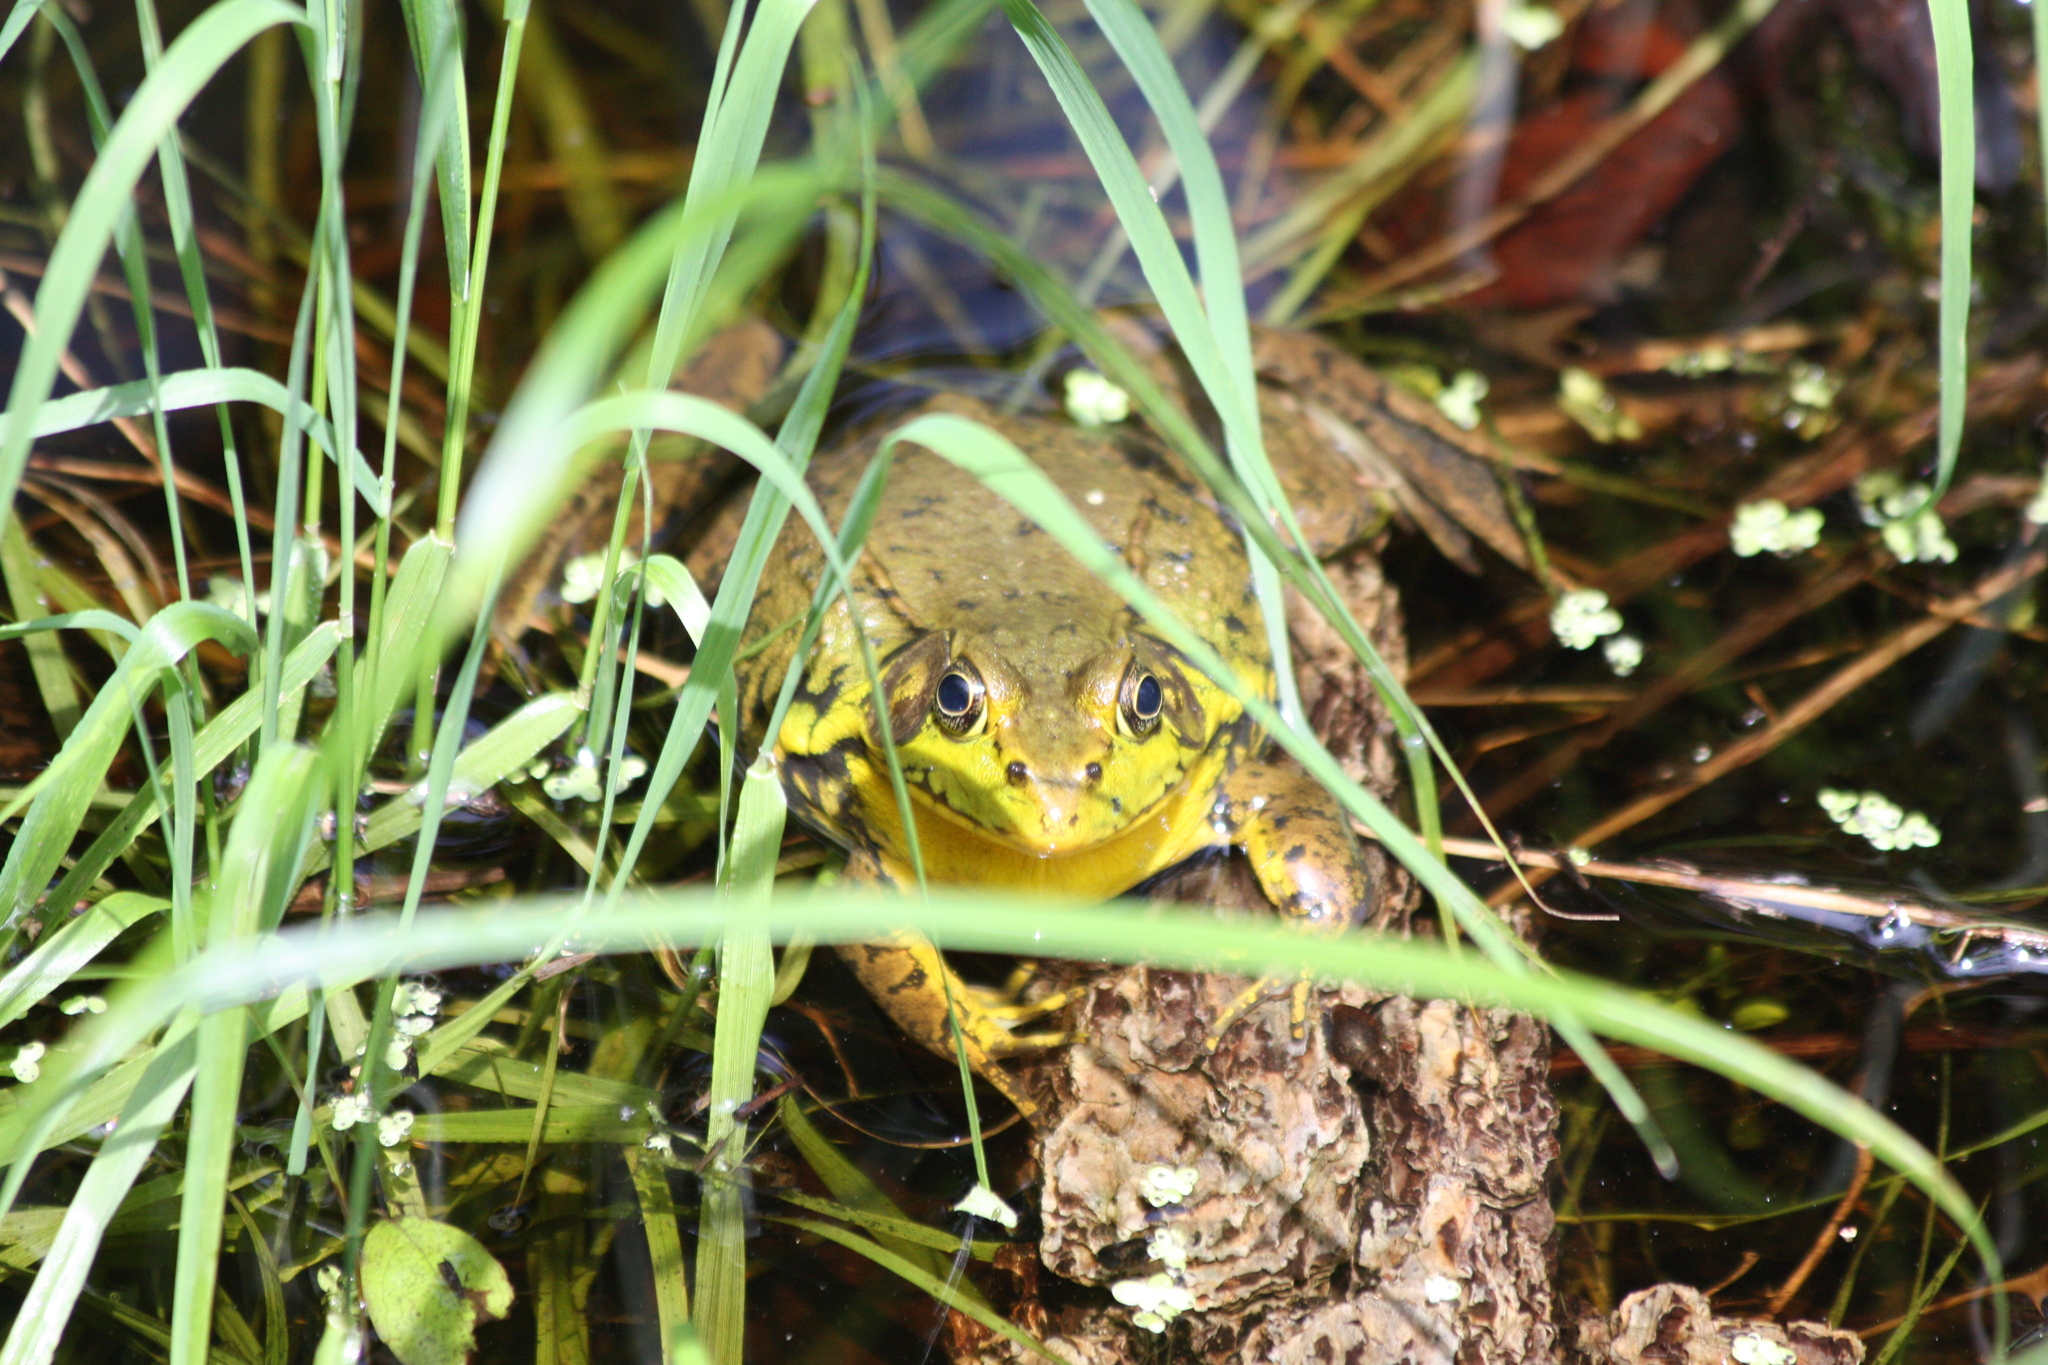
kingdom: Animalia
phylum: Chordata
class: Amphibia
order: Anura
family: Ranidae
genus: Lithobates
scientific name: Lithobates clamitans
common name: Green frog
